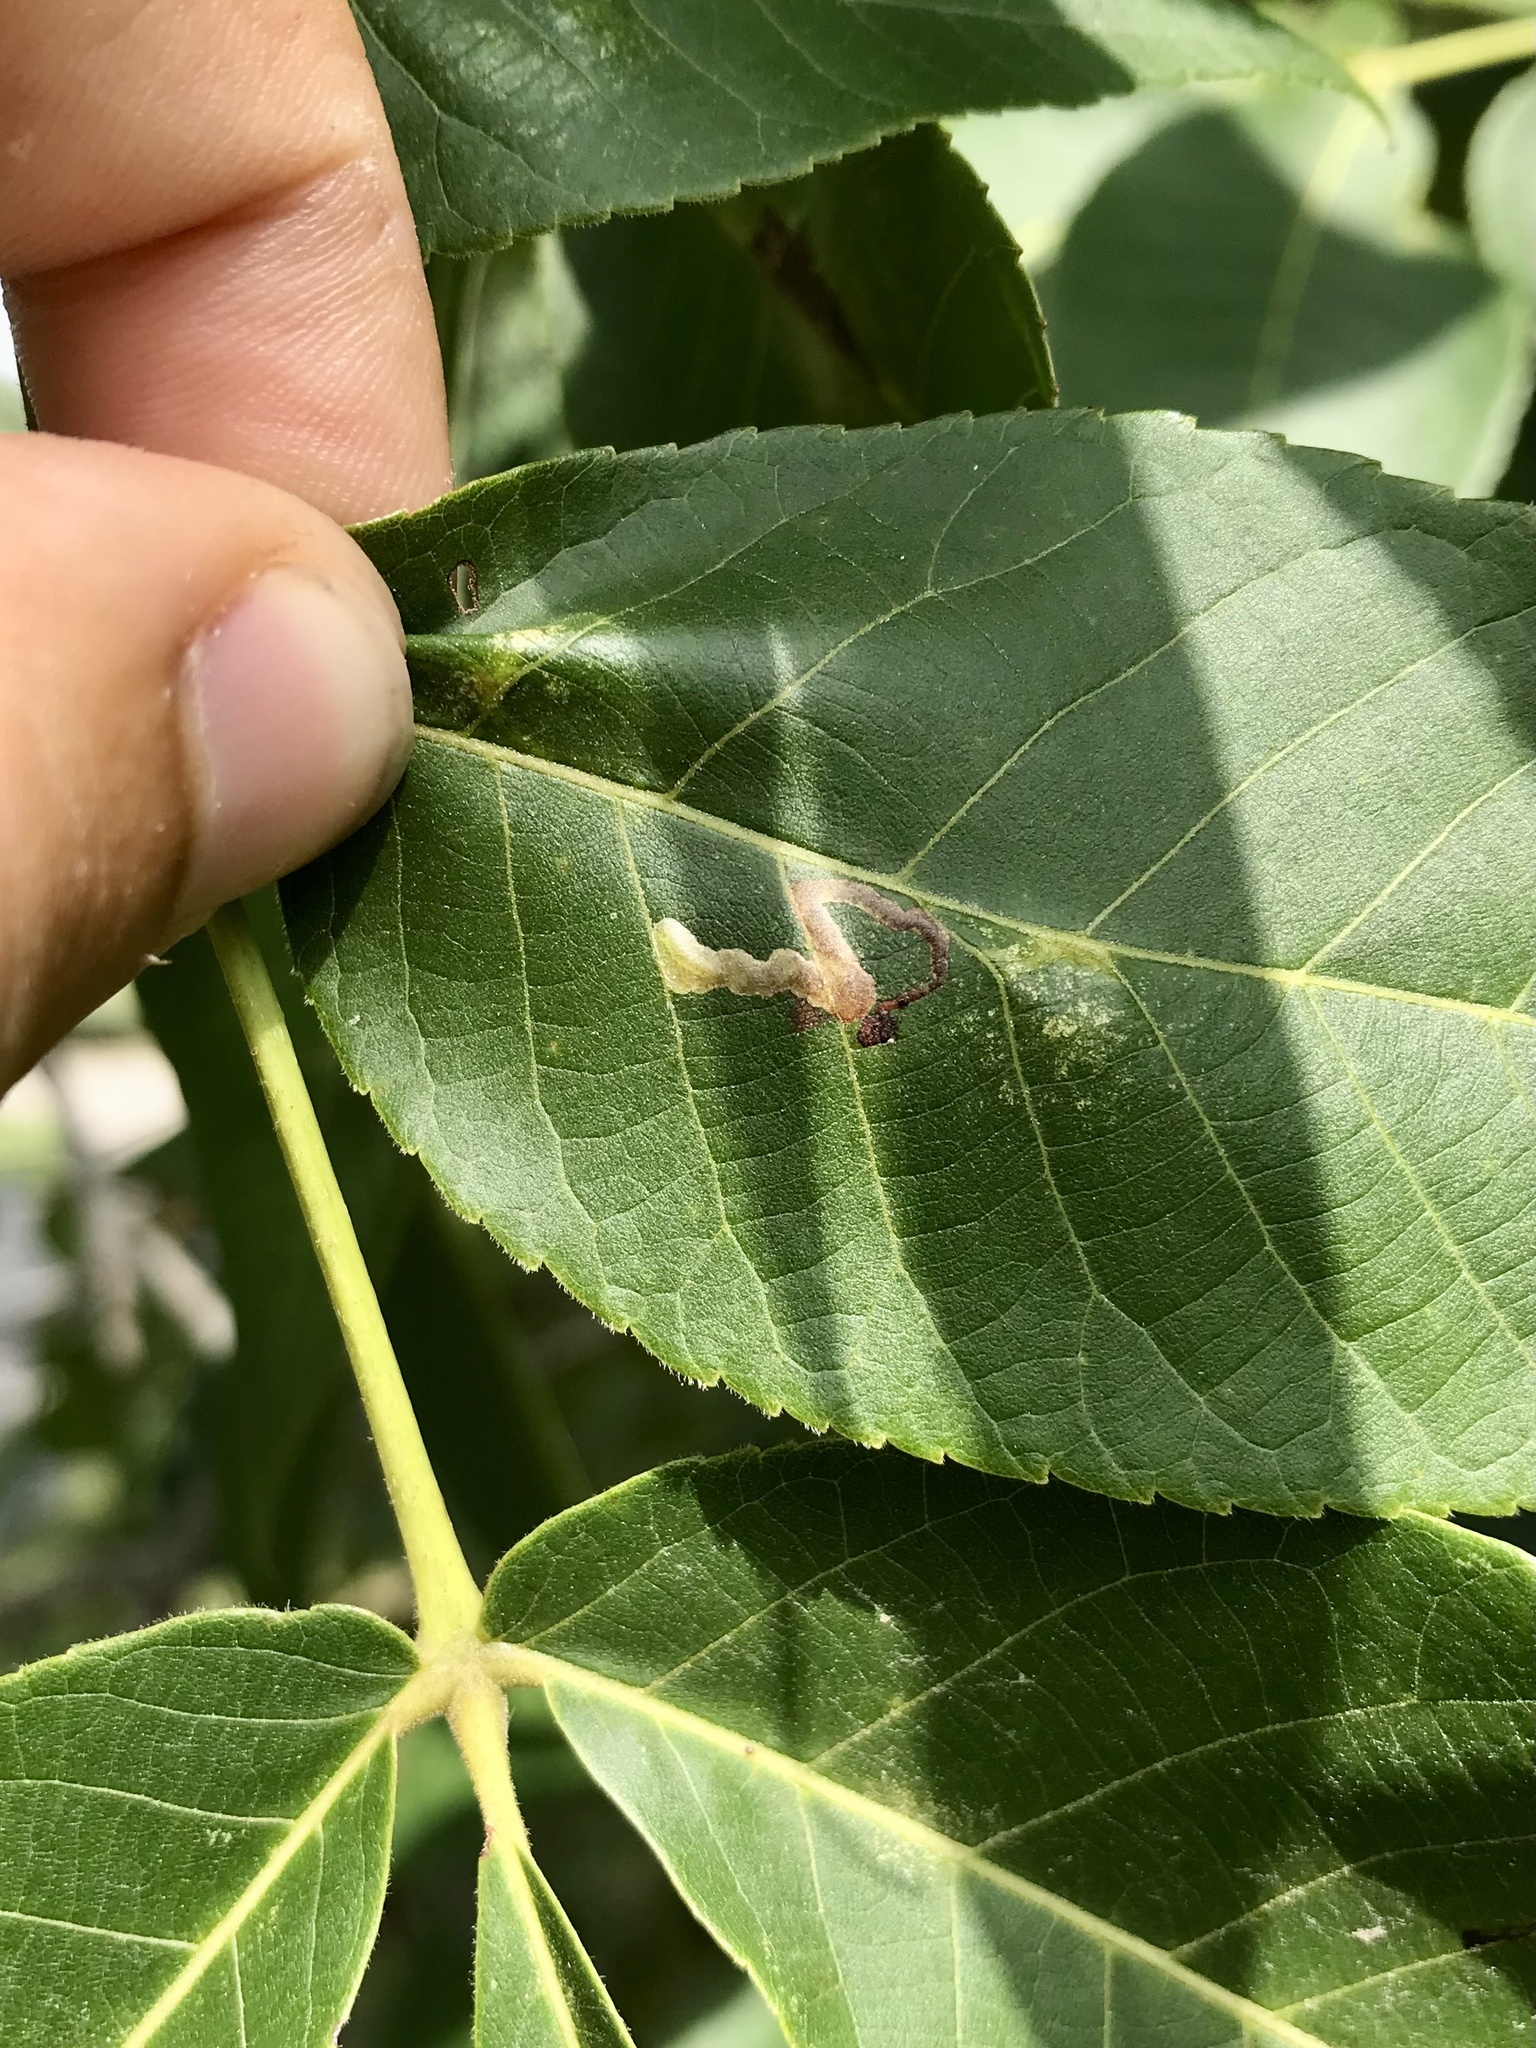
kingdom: Animalia
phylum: Arthropoda
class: Insecta
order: Lepidoptera
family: Nepticulidae
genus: Ectoedemia
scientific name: Ectoedemia virgulae
